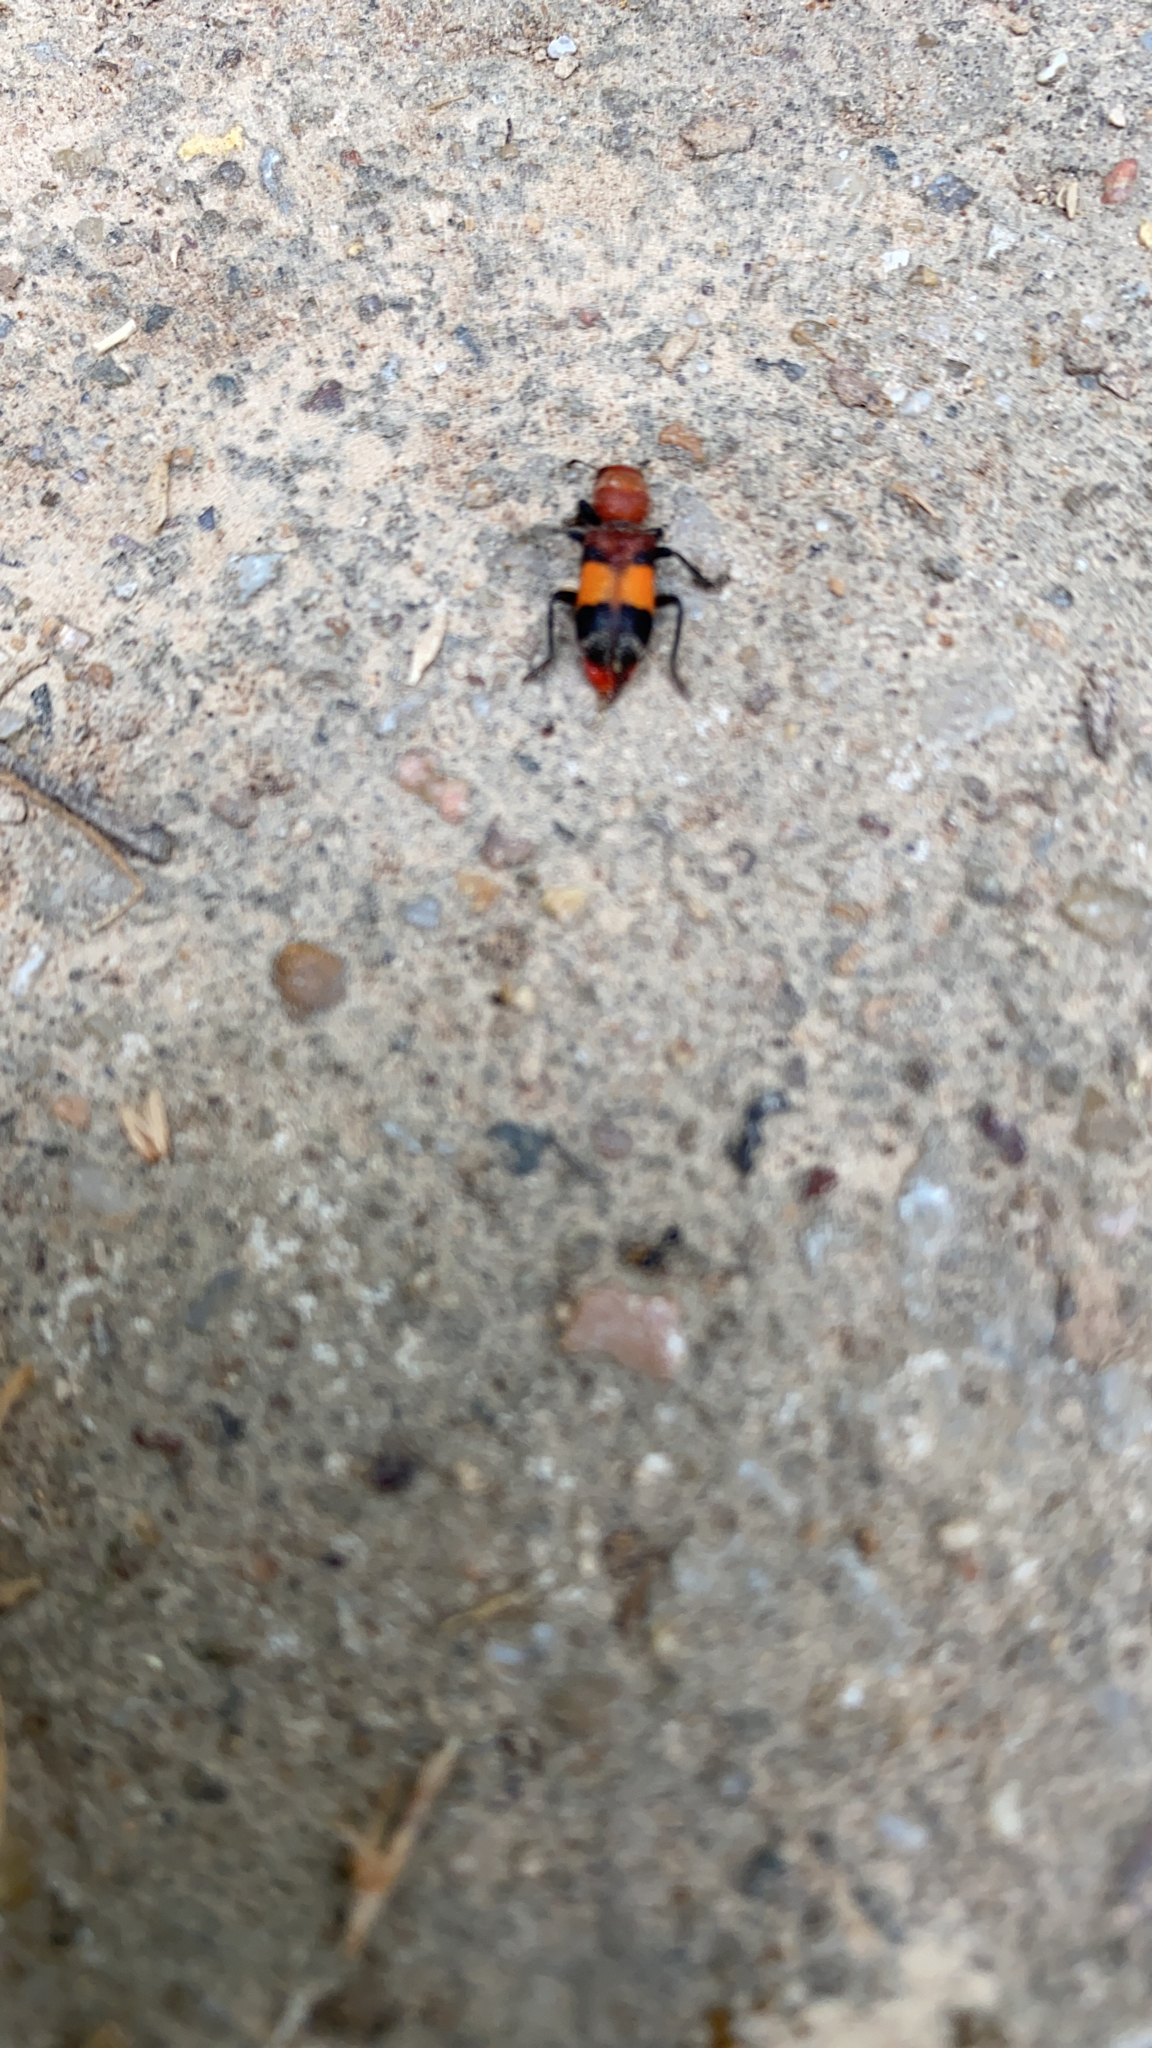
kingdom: Animalia
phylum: Arthropoda
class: Insecta
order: Coleoptera
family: Cleridae
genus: Enoclerus
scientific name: Enoclerus ichneumoneus
